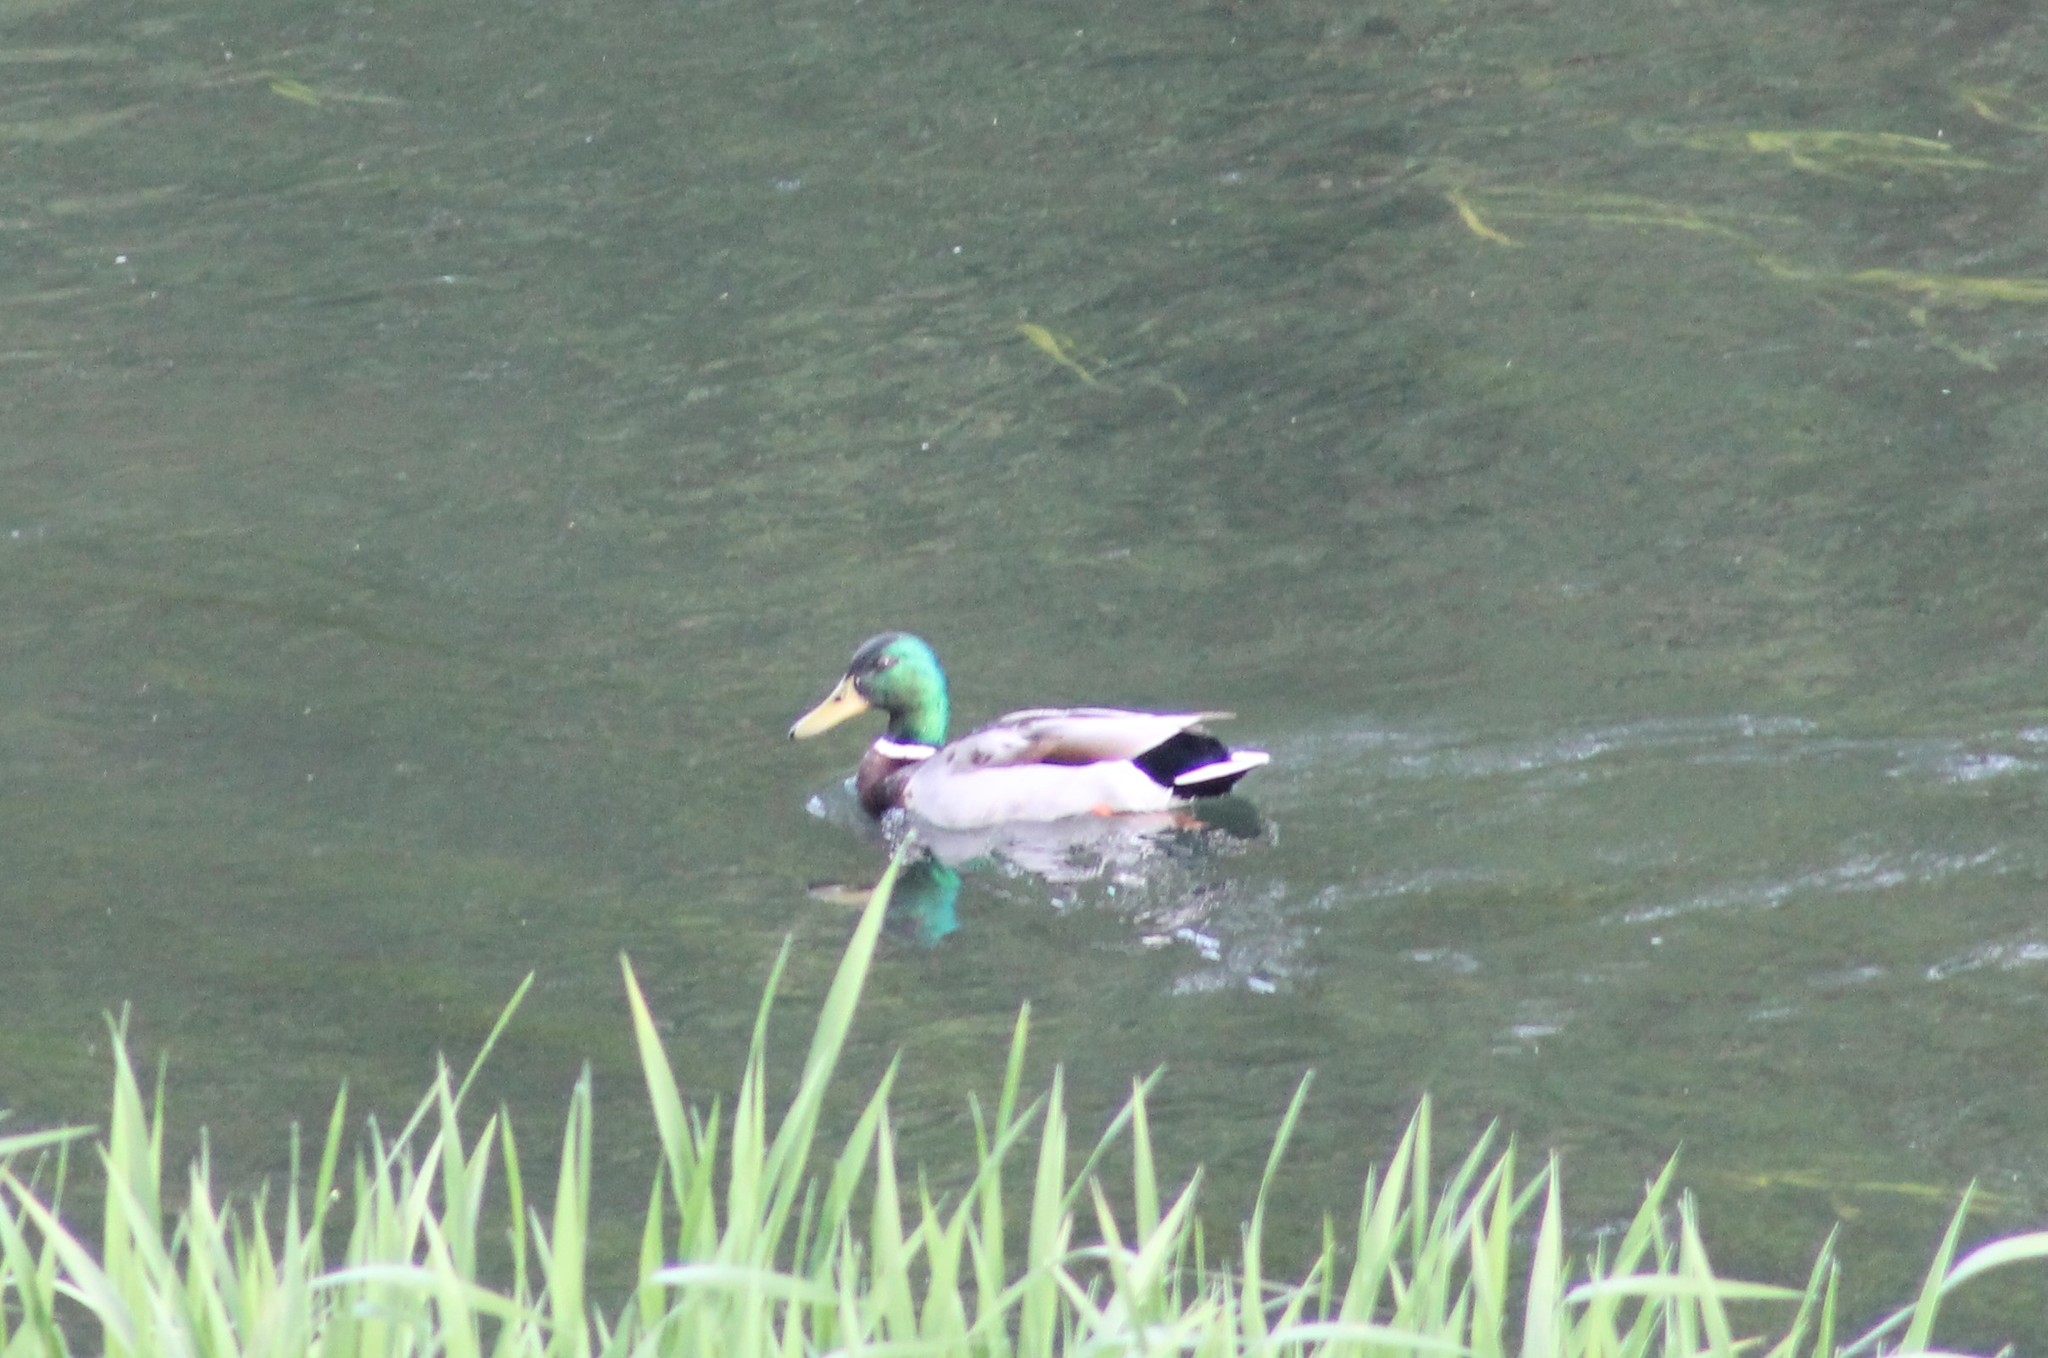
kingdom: Animalia
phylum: Chordata
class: Aves
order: Anseriformes
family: Anatidae
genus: Anas
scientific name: Anas platyrhynchos
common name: Mallard
